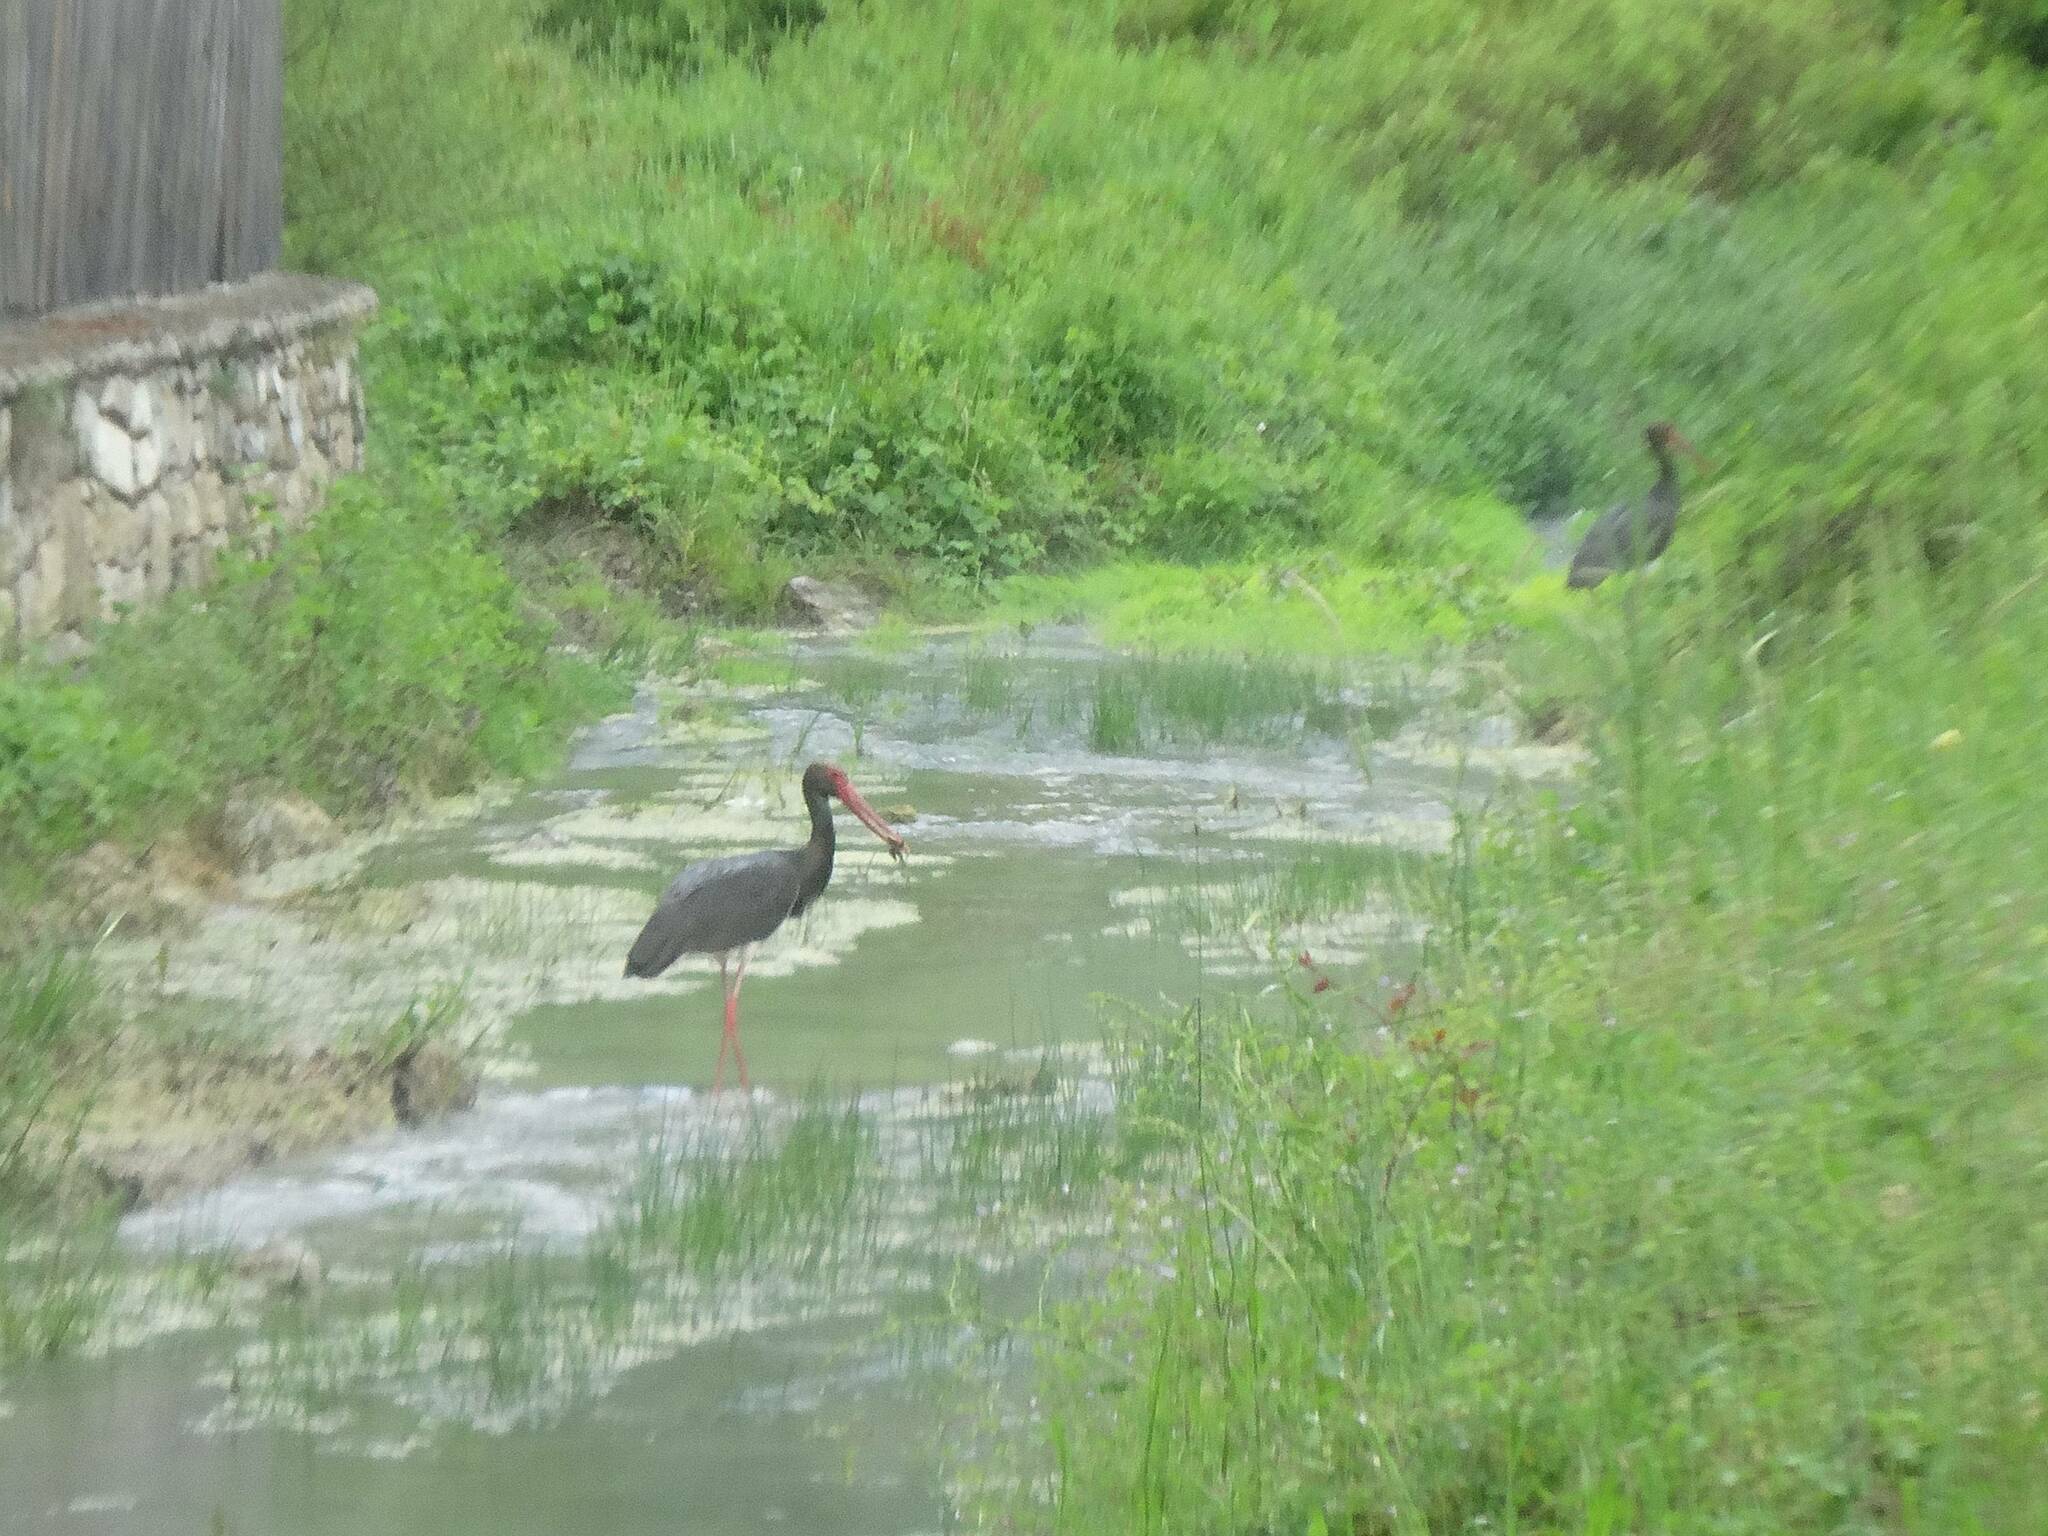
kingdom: Animalia
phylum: Chordata
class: Aves
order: Ciconiiformes
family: Ciconiidae
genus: Ciconia
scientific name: Ciconia nigra
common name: Black stork
